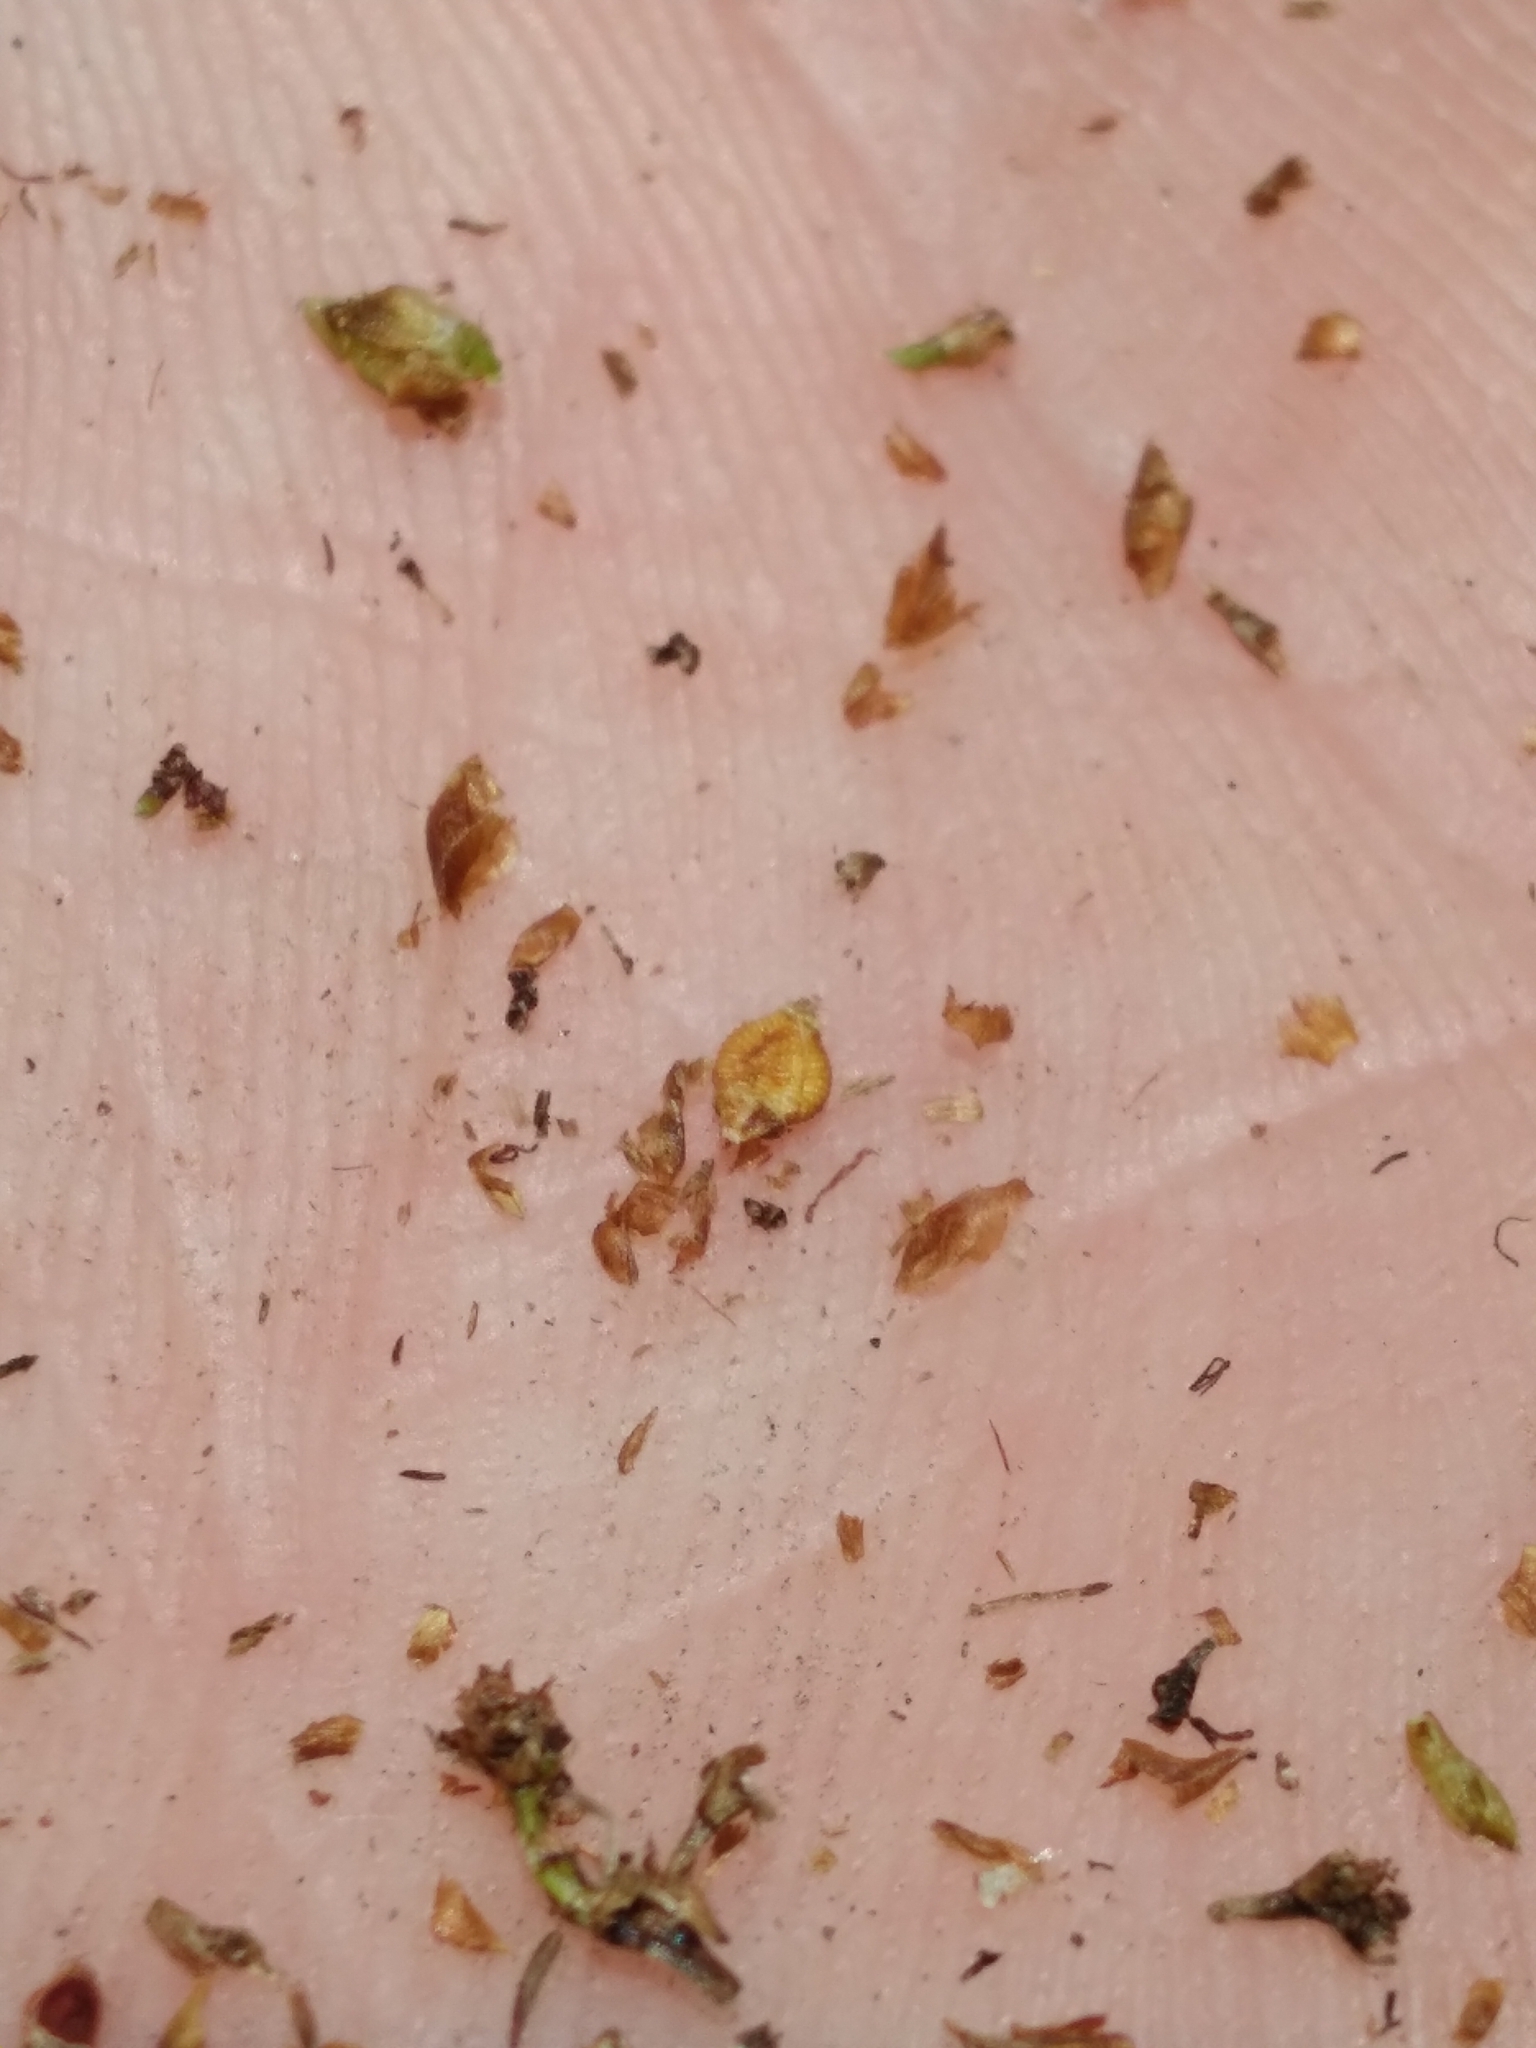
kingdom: Plantae
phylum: Tracheophyta
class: Liliopsida
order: Poales
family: Cyperaceae
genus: Rhynchospora
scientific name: Rhynchospora compressa
